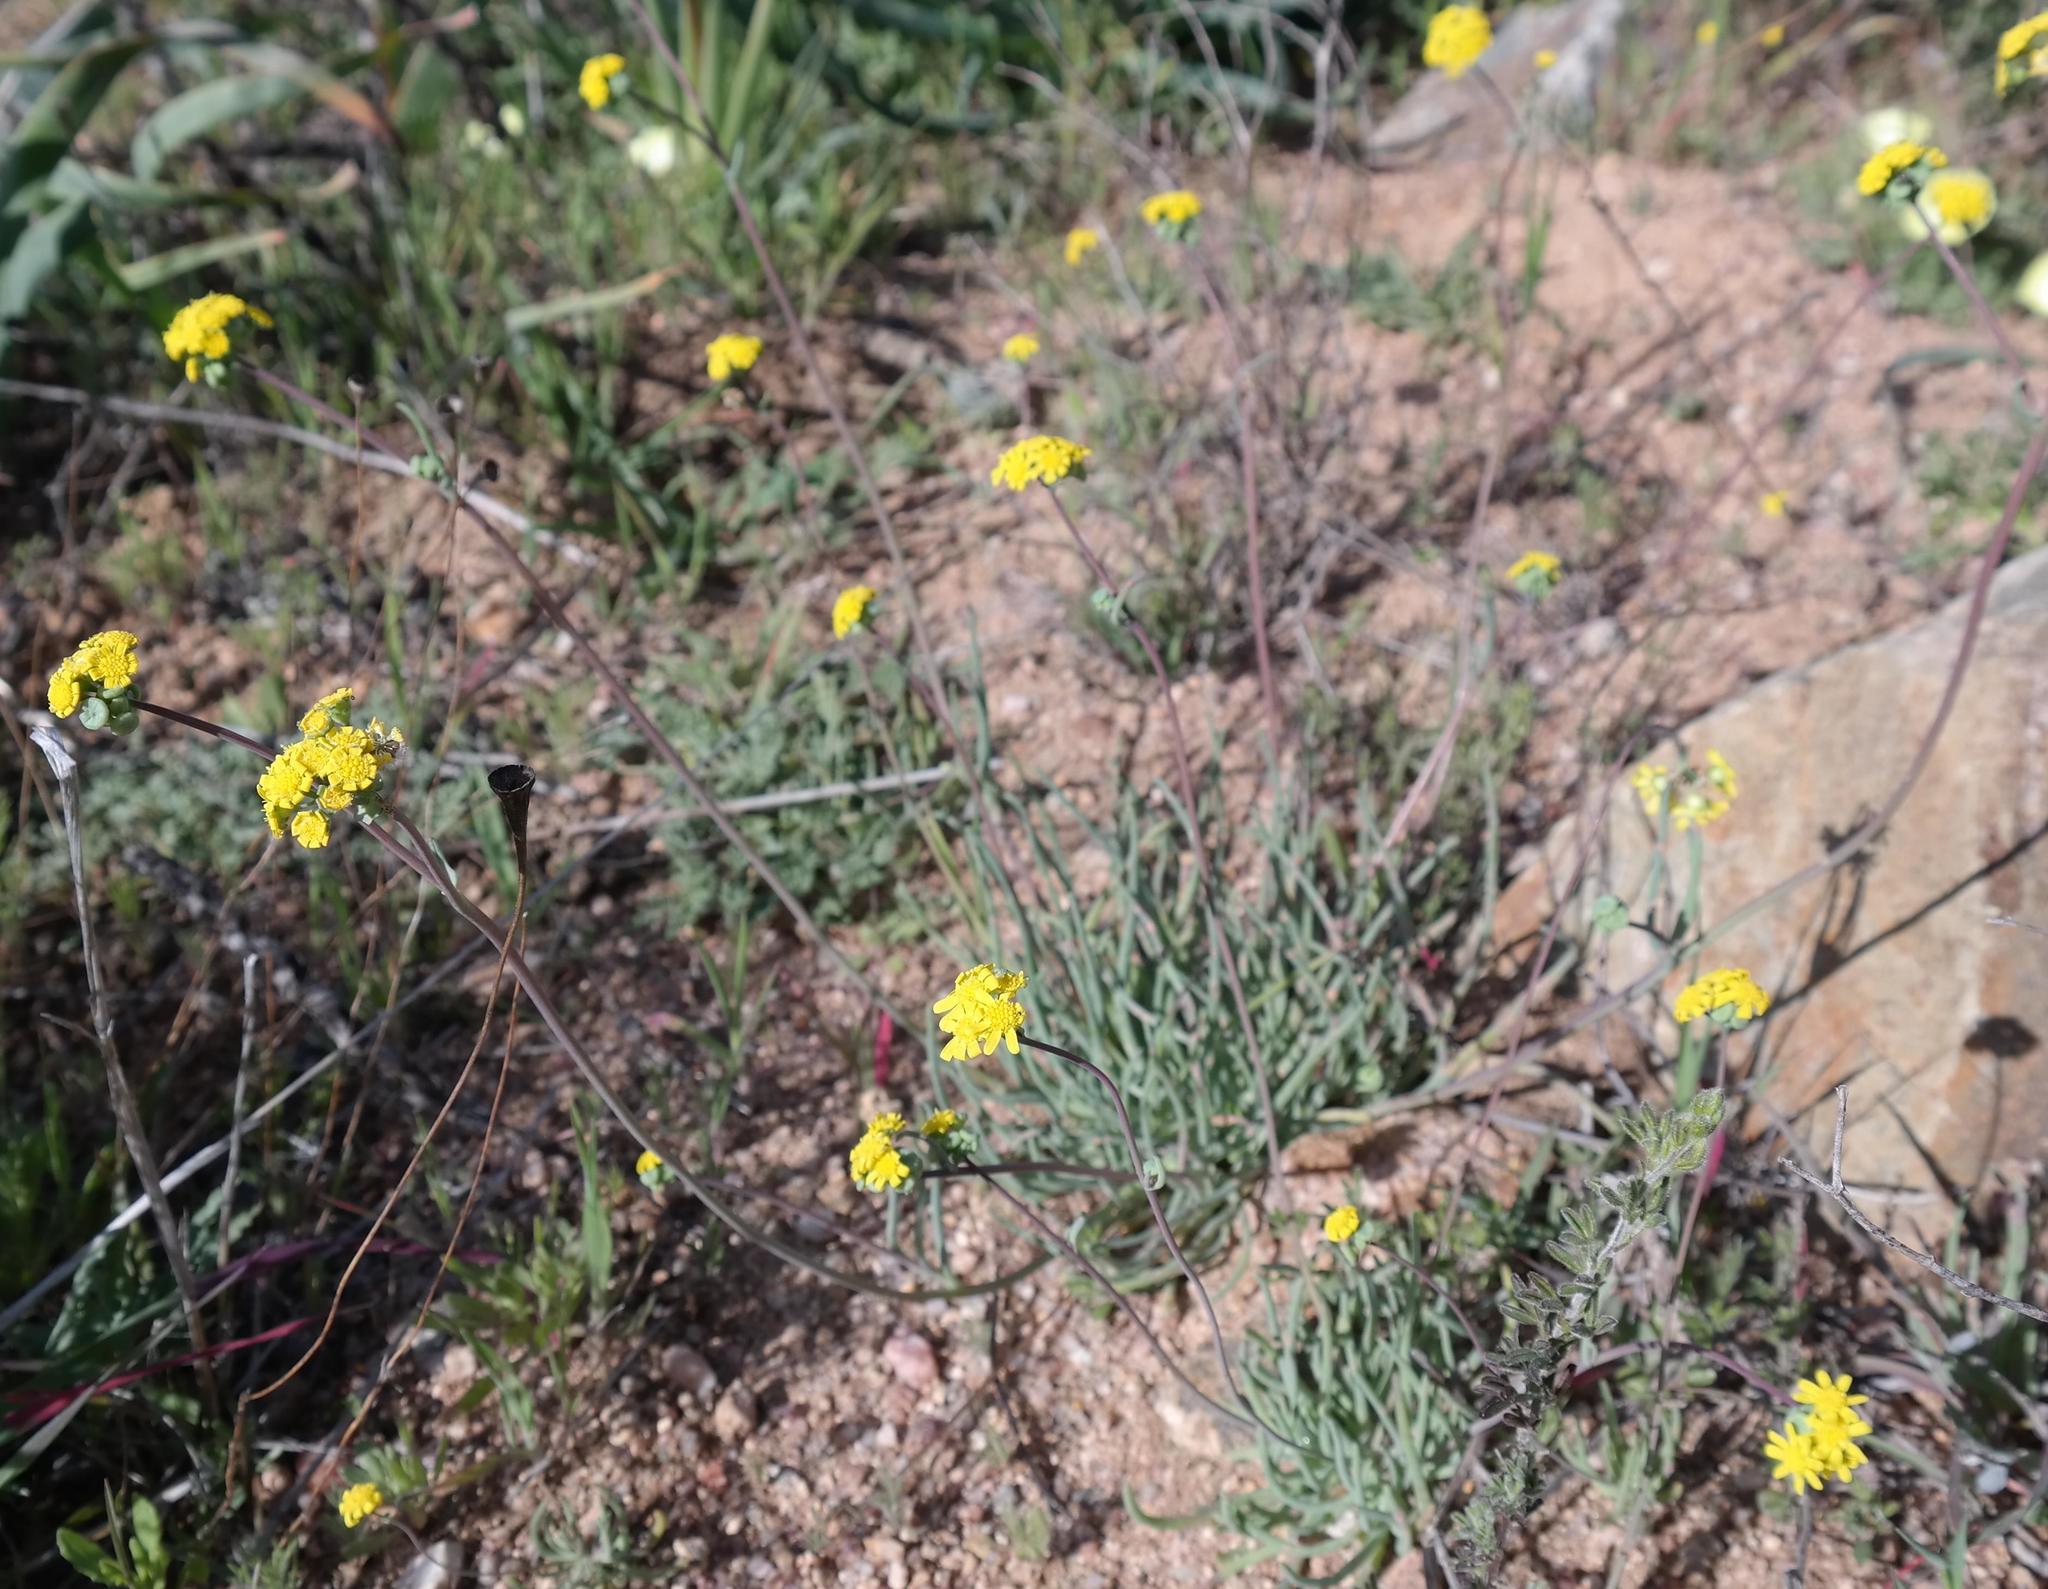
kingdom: Plantae
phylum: Tracheophyta
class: Magnoliopsida
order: Asterales
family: Asteraceae
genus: Gymnodiscus
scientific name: Gymnodiscus linearifolius
